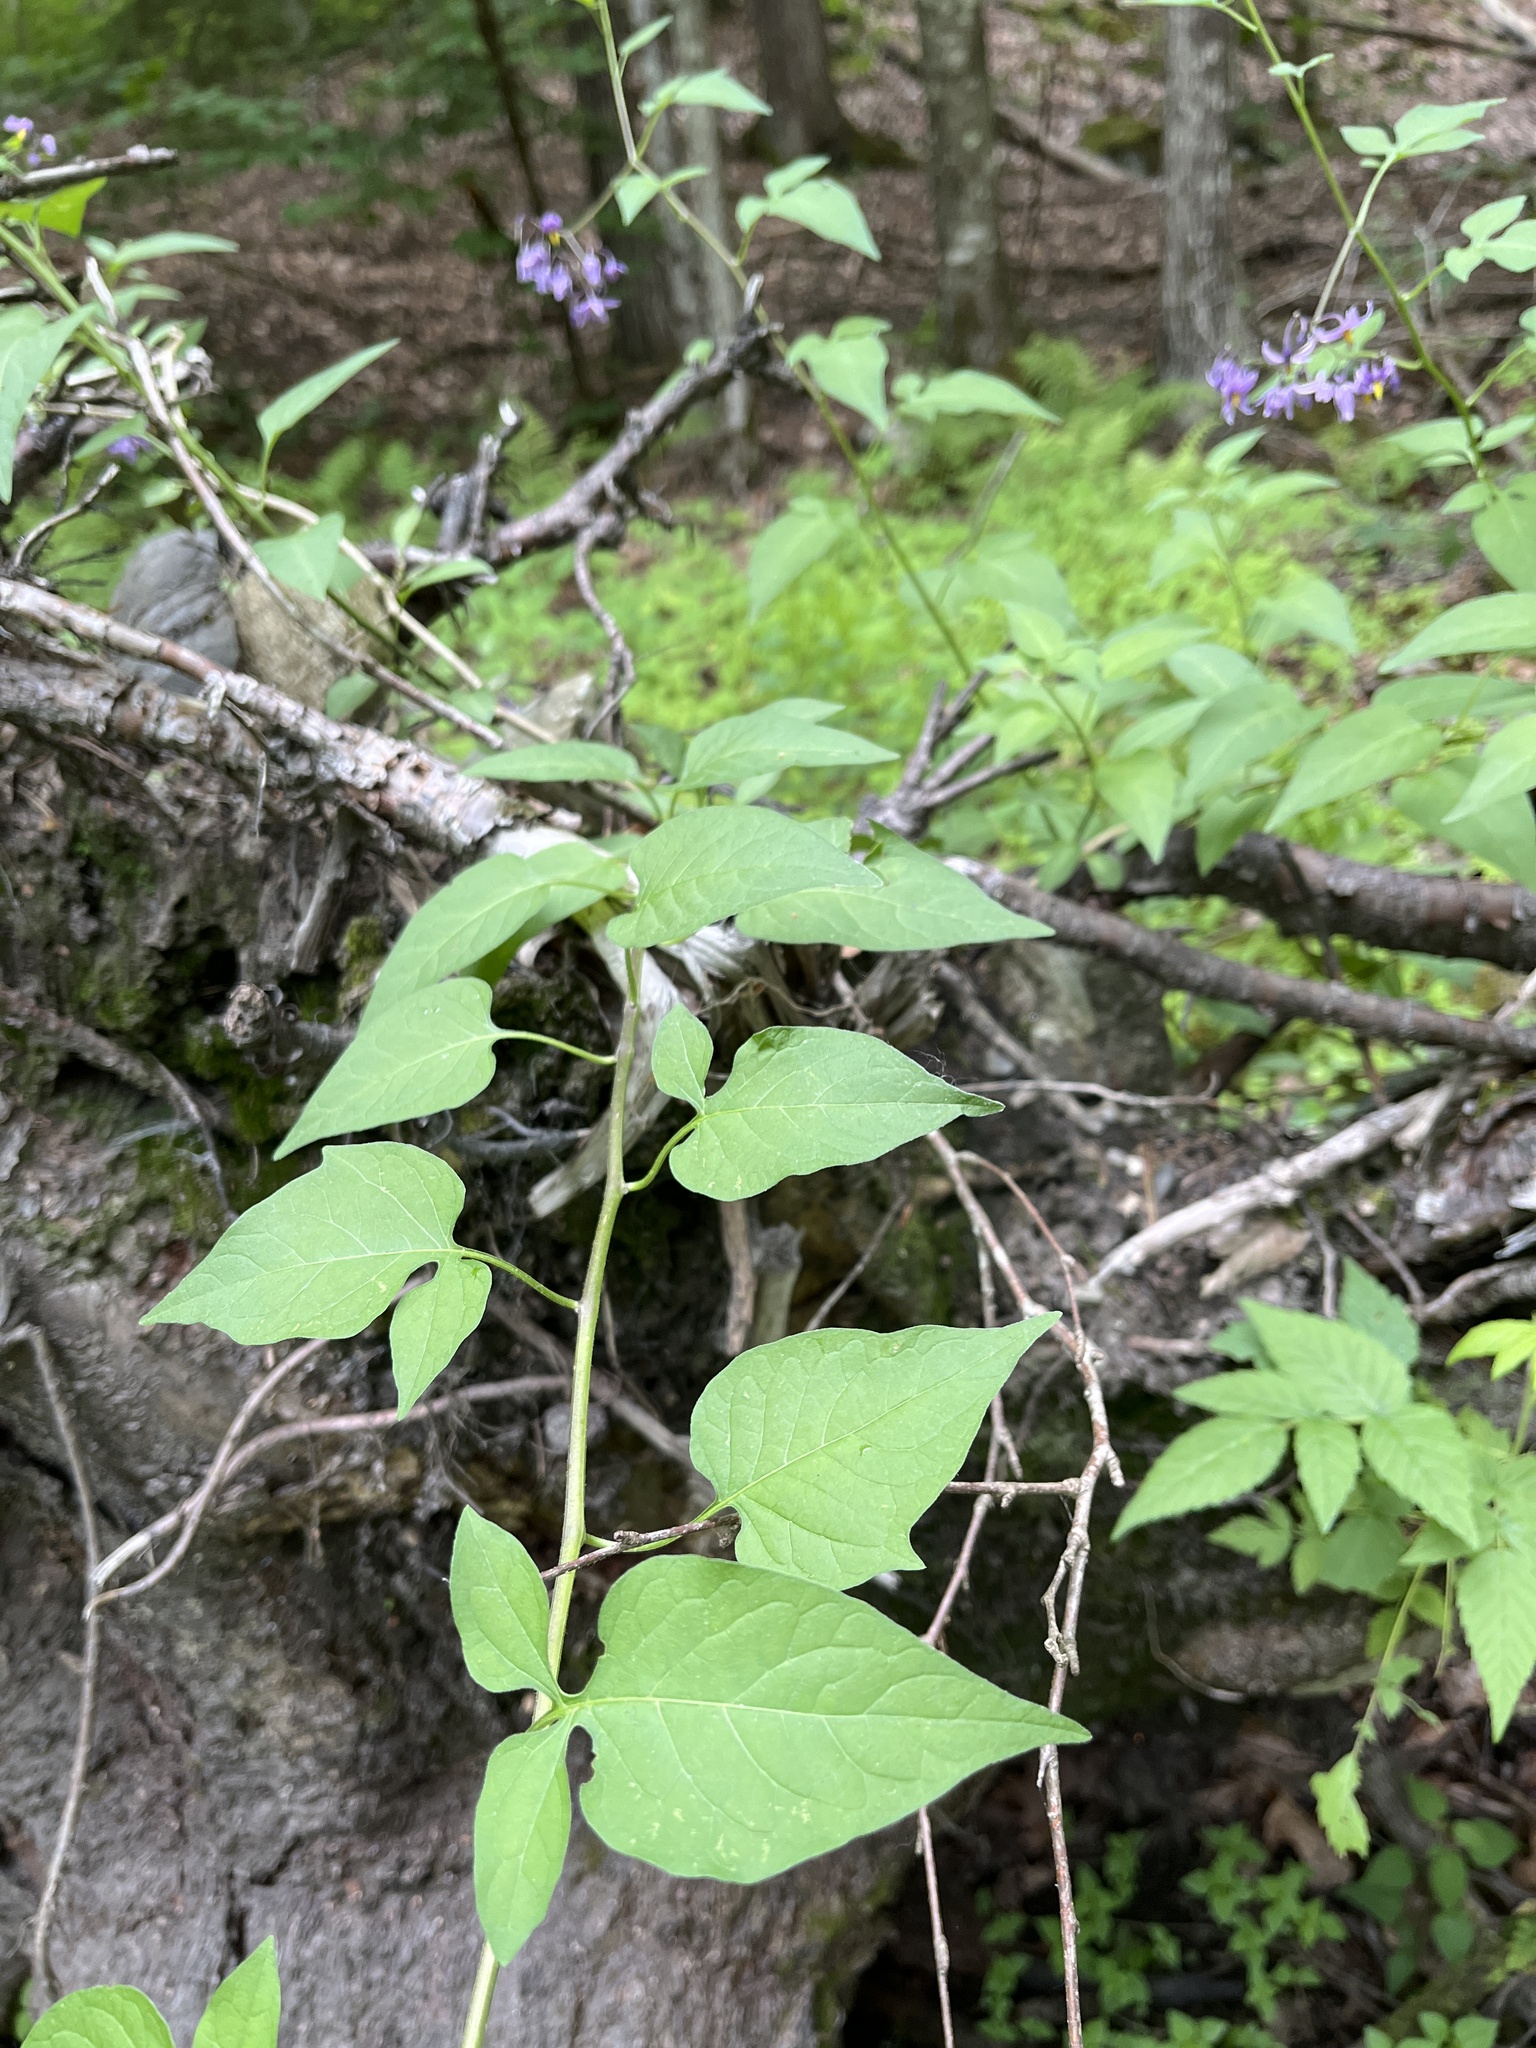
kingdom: Plantae
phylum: Tracheophyta
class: Magnoliopsida
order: Solanales
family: Solanaceae
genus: Solanum
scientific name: Solanum dulcamara
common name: Climbing nightshade
